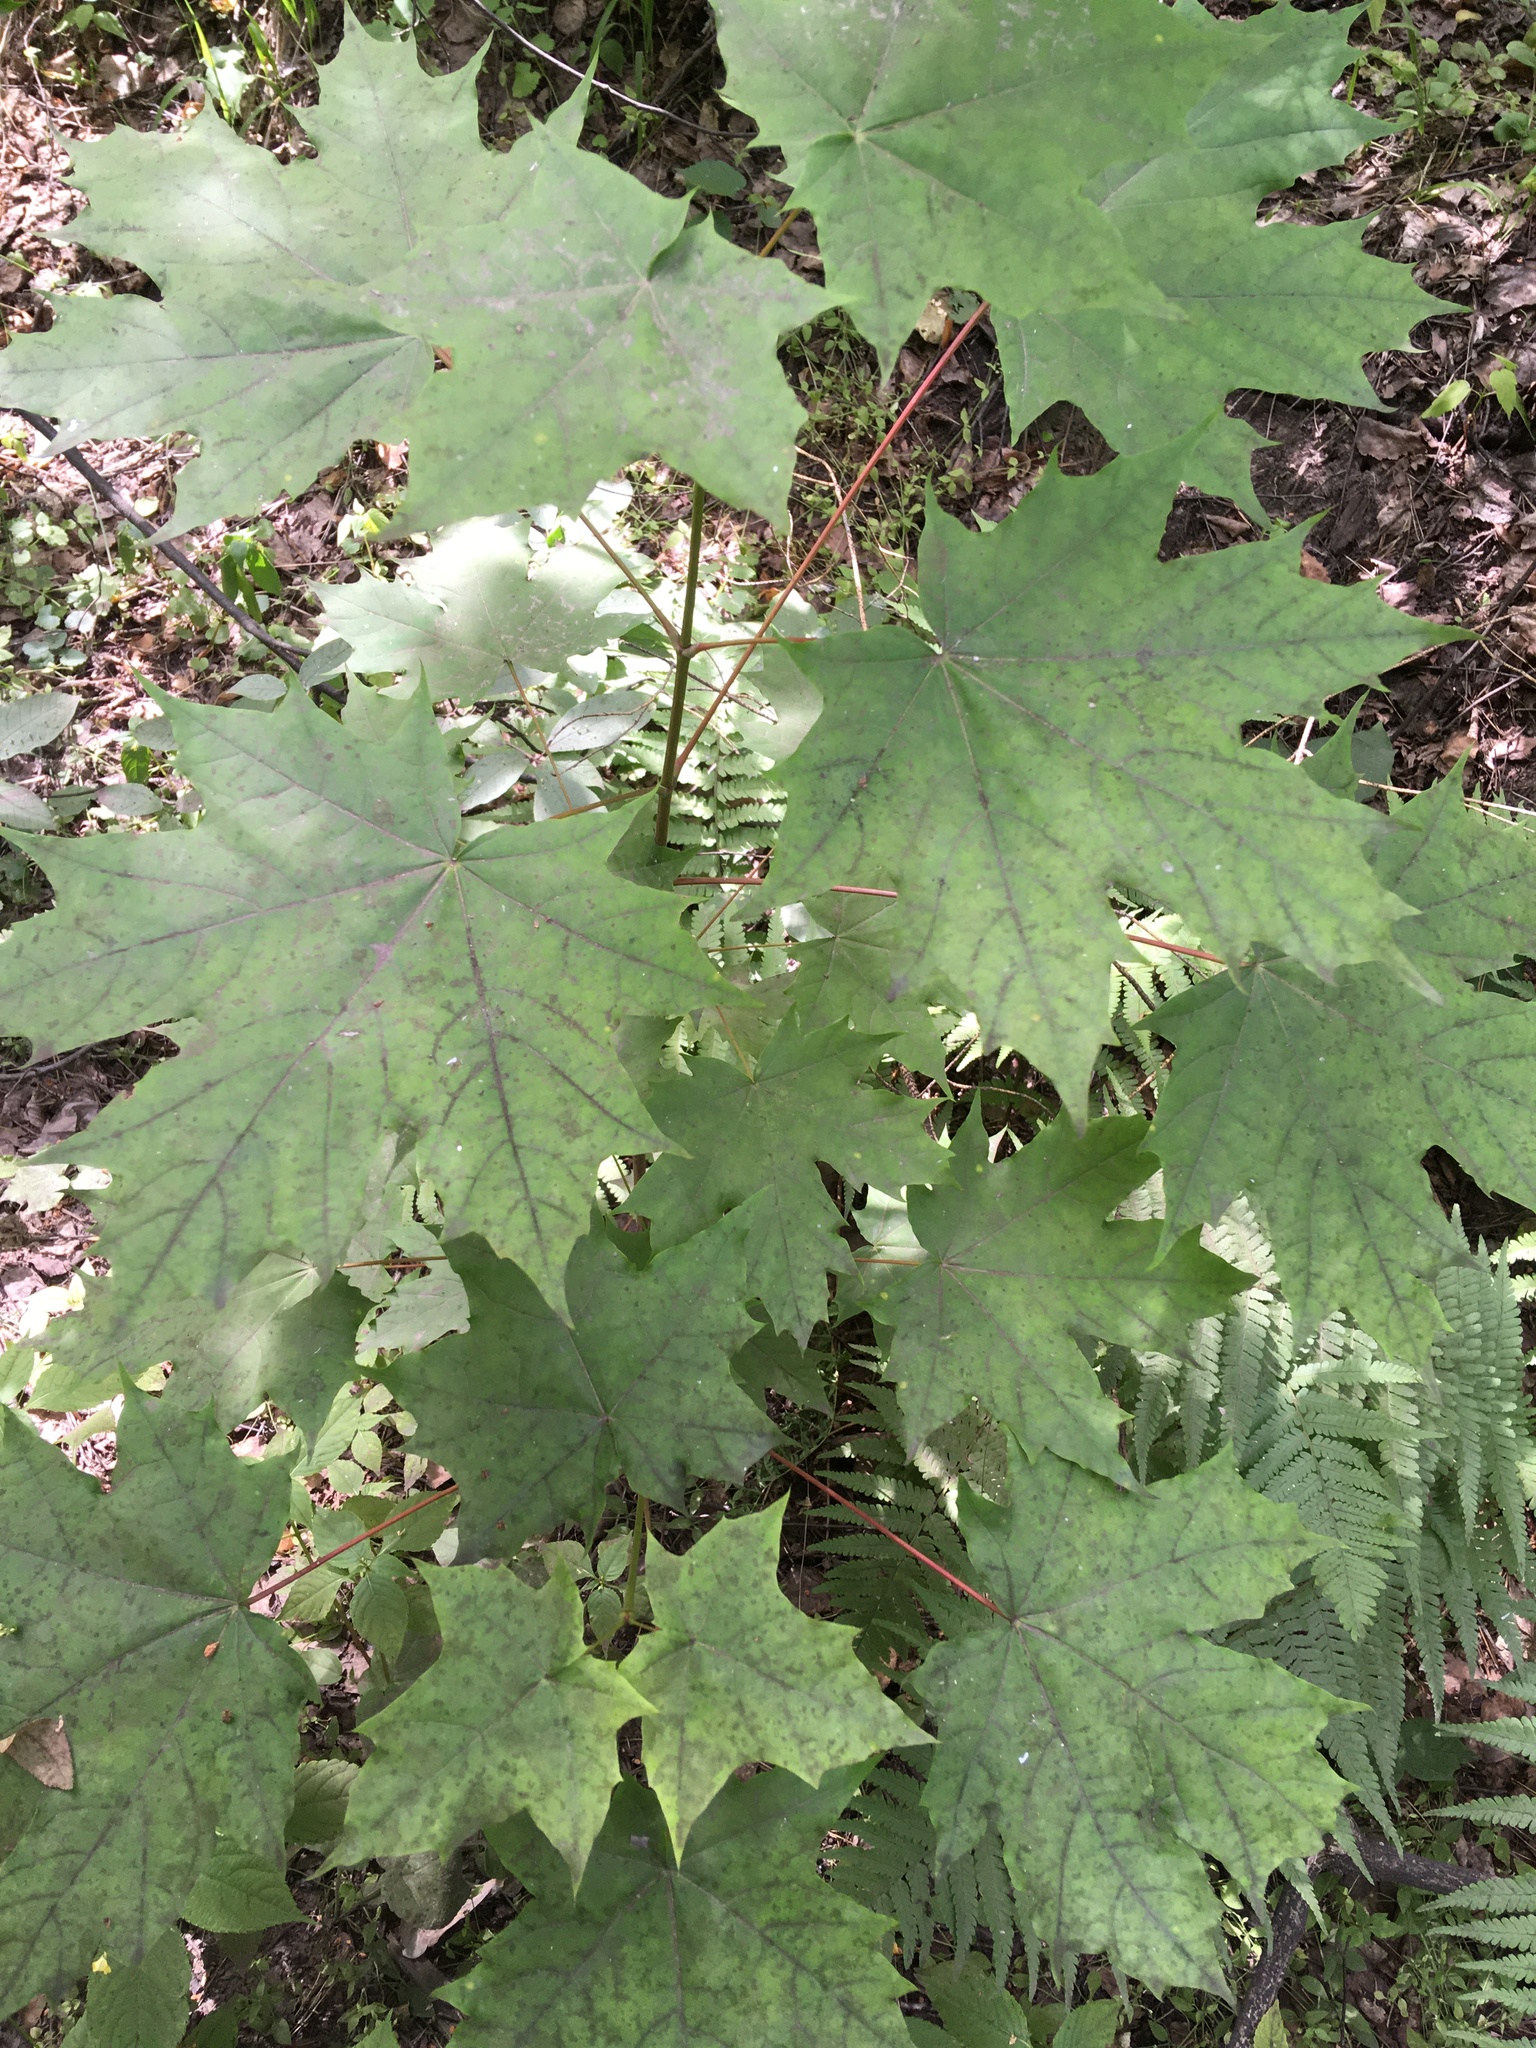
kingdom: Plantae
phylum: Tracheophyta
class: Magnoliopsida
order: Sapindales
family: Sapindaceae
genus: Acer
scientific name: Acer platanoides
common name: Norway maple
